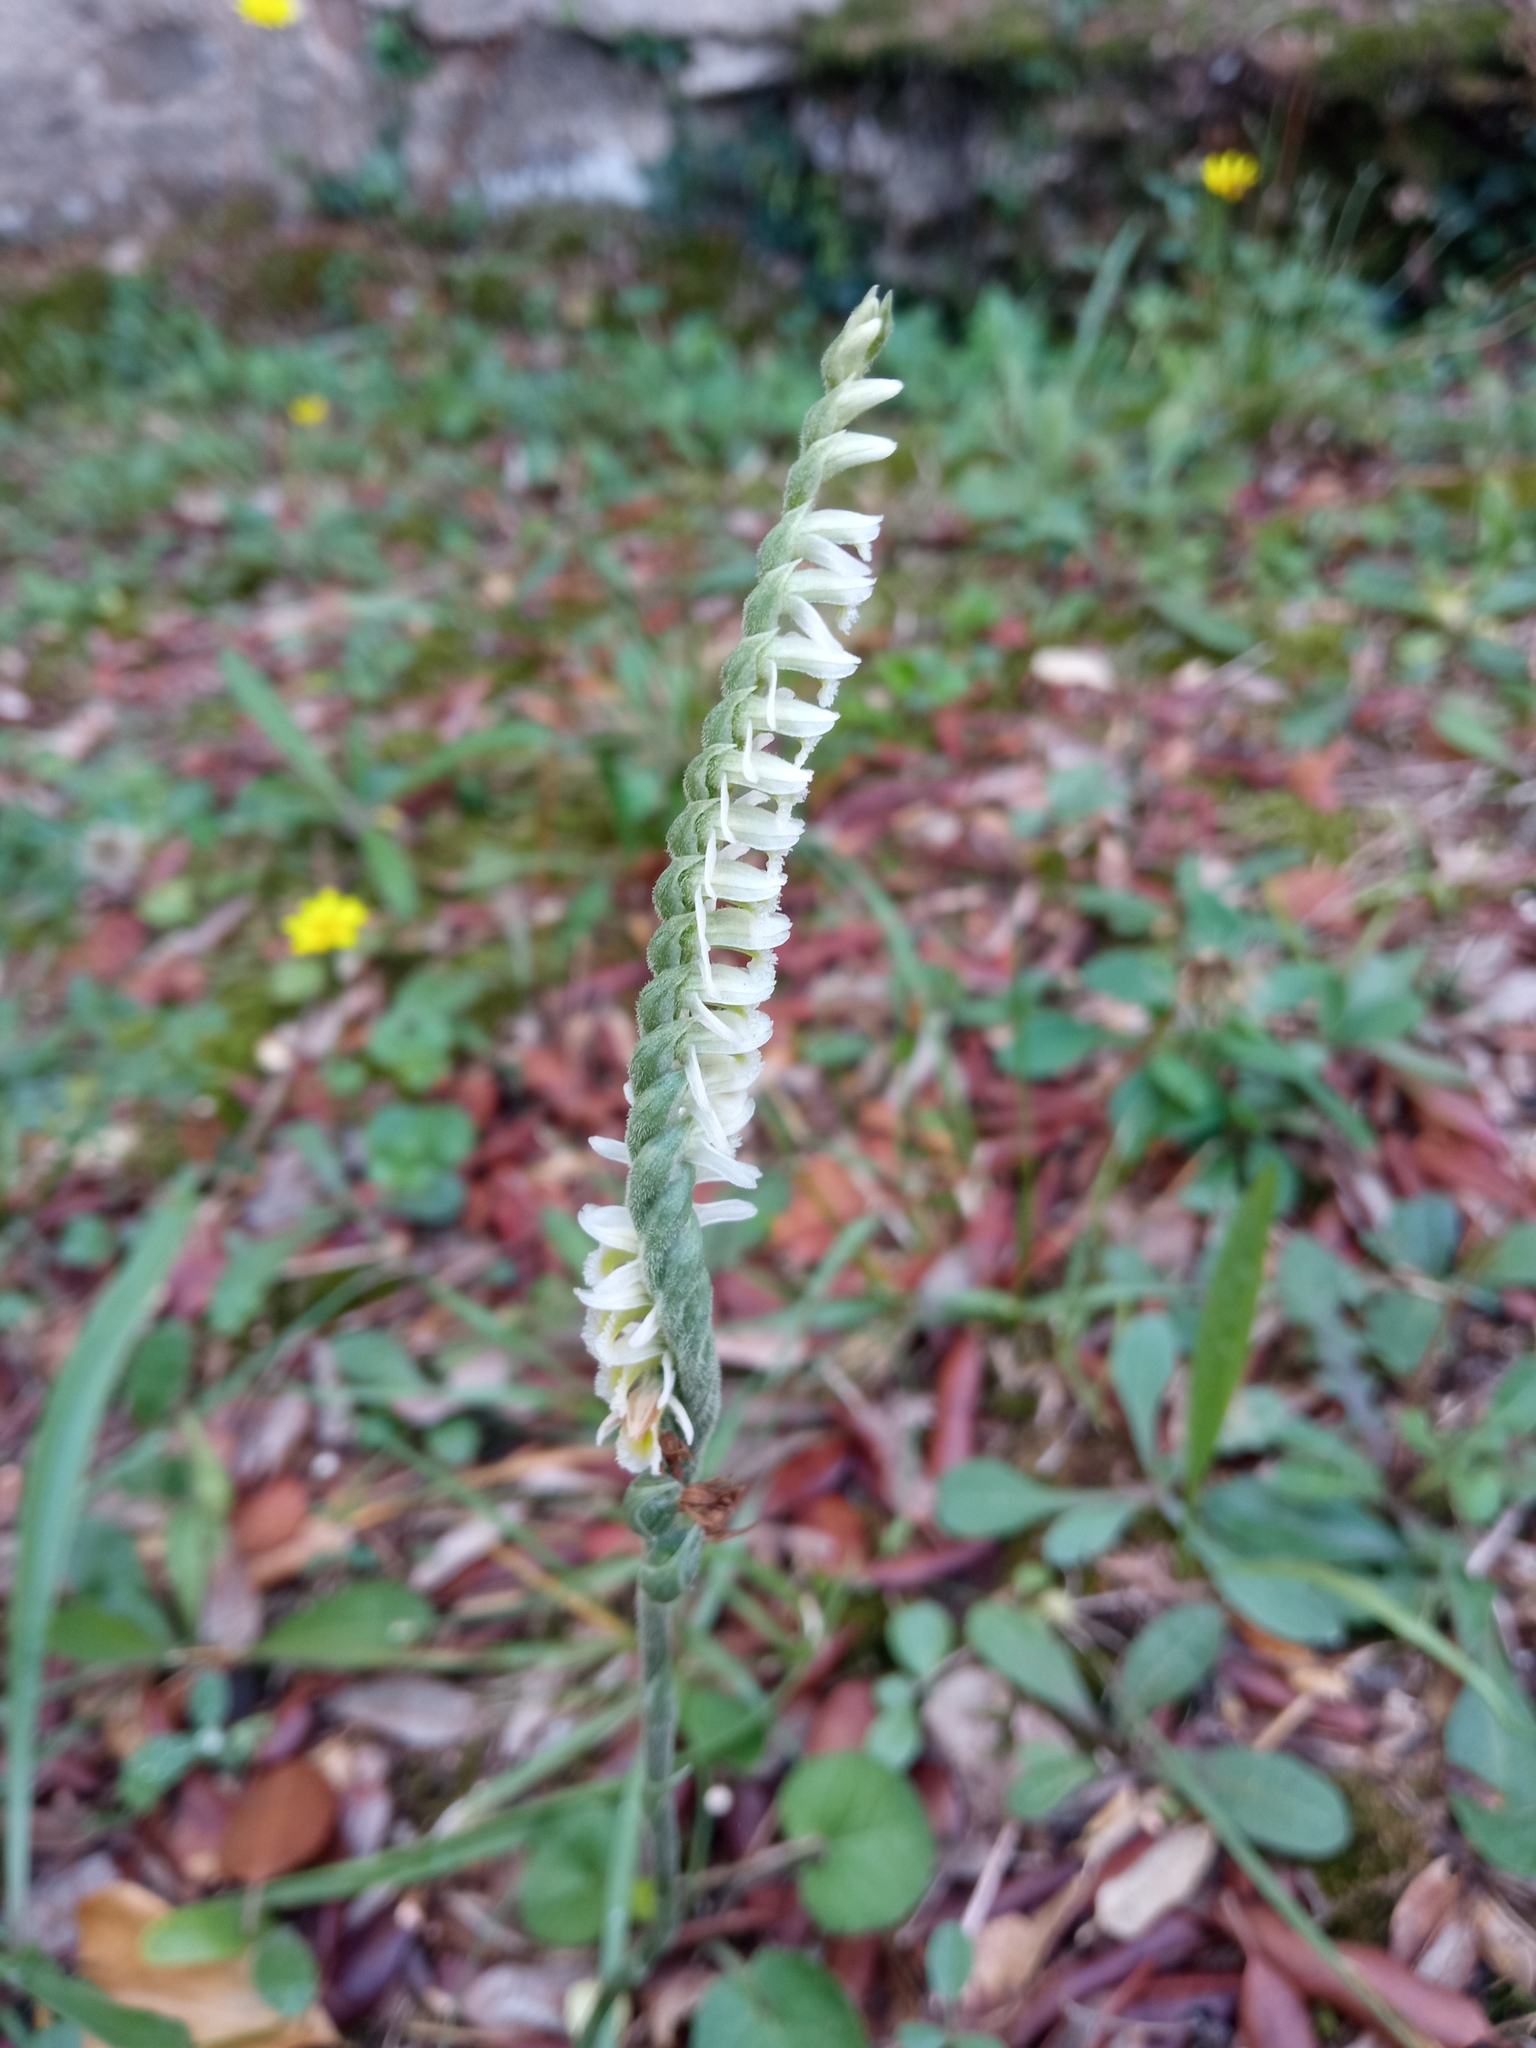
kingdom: Plantae
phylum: Tracheophyta
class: Liliopsida
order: Asparagales
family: Orchidaceae
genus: Spiranthes
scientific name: Spiranthes spiralis
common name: Autumn lady's-tresses
